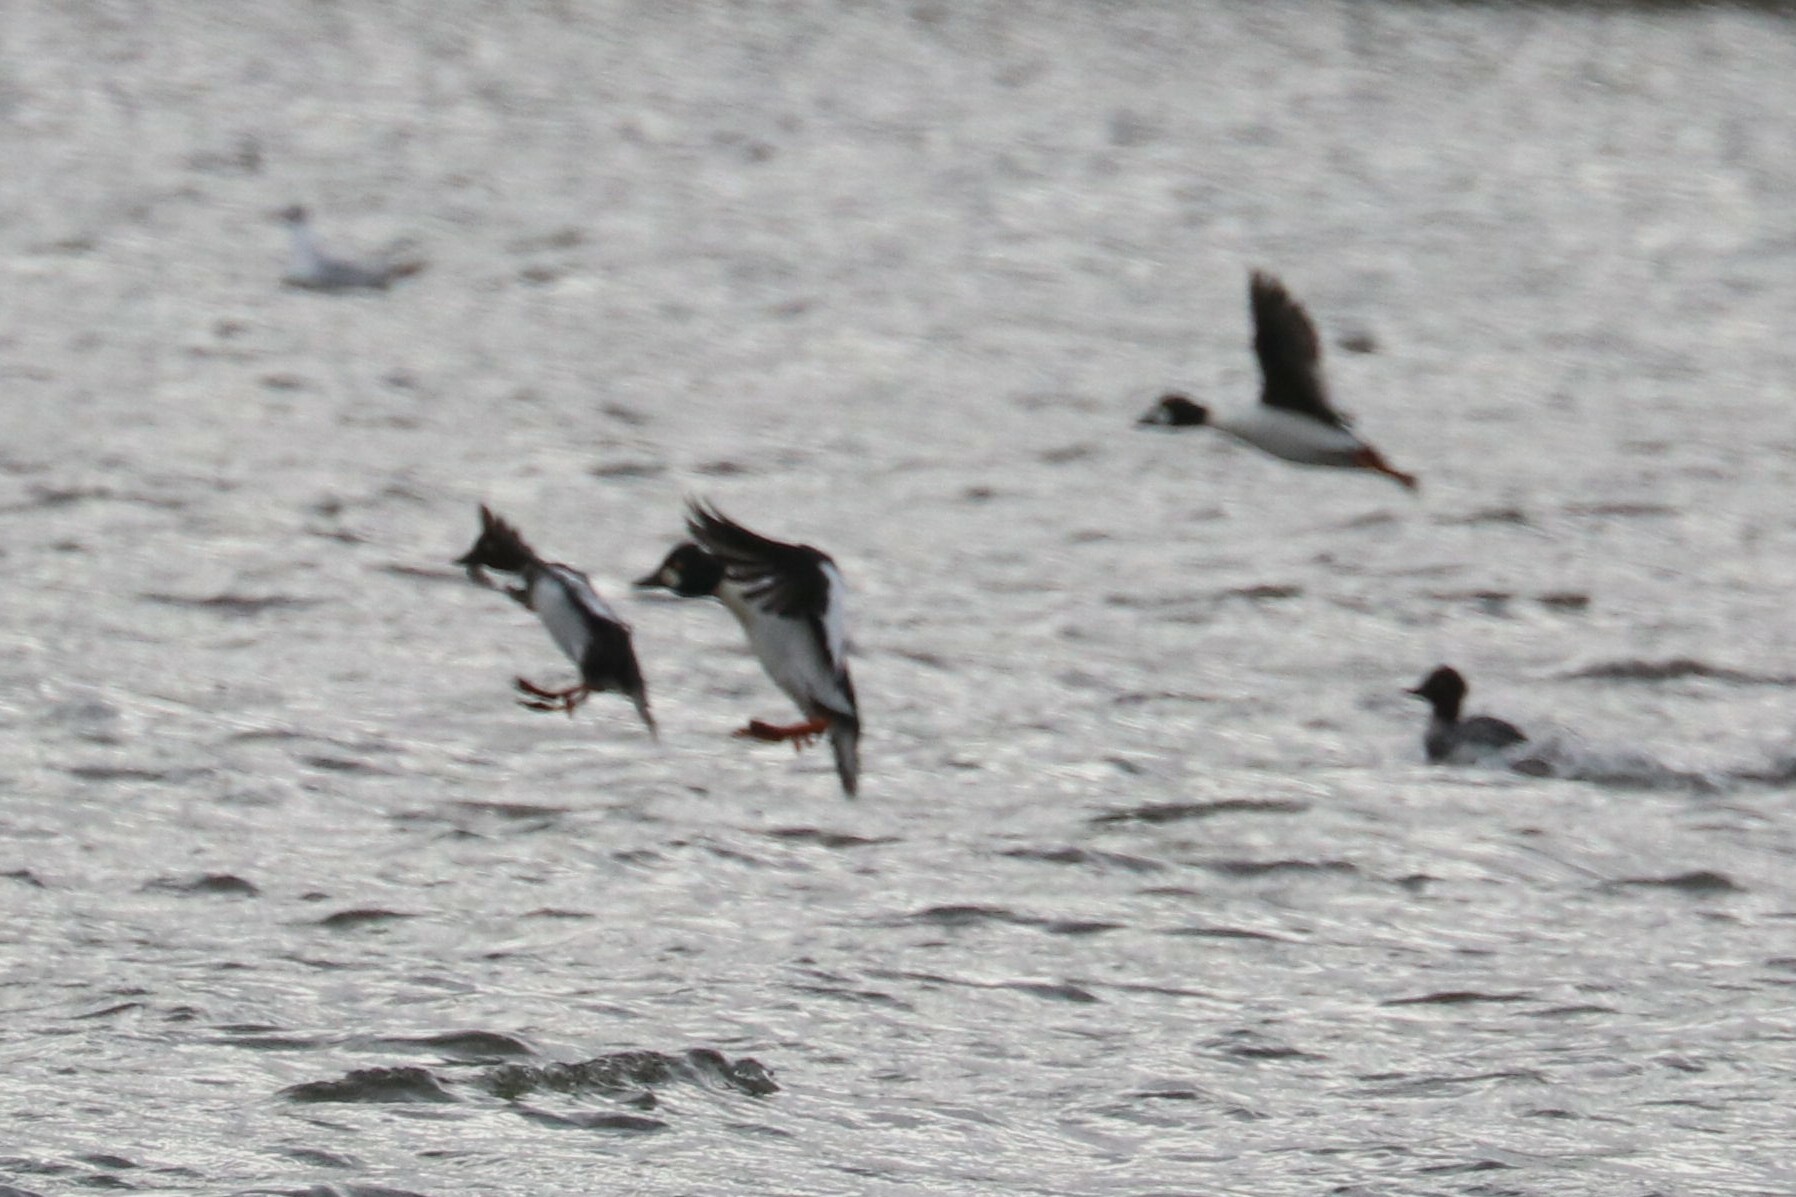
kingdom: Animalia
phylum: Chordata
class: Aves
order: Anseriformes
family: Anatidae
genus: Bucephala
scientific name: Bucephala clangula
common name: Common goldeneye
